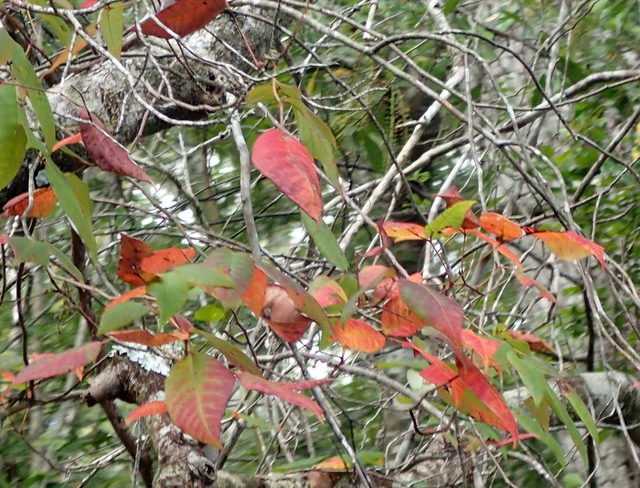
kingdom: Plantae
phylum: Tracheophyta
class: Magnoliopsida
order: Sapindales
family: Anacardiaceae
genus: Toxicodendron
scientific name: Toxicodendron radicans
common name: Poison ivy
